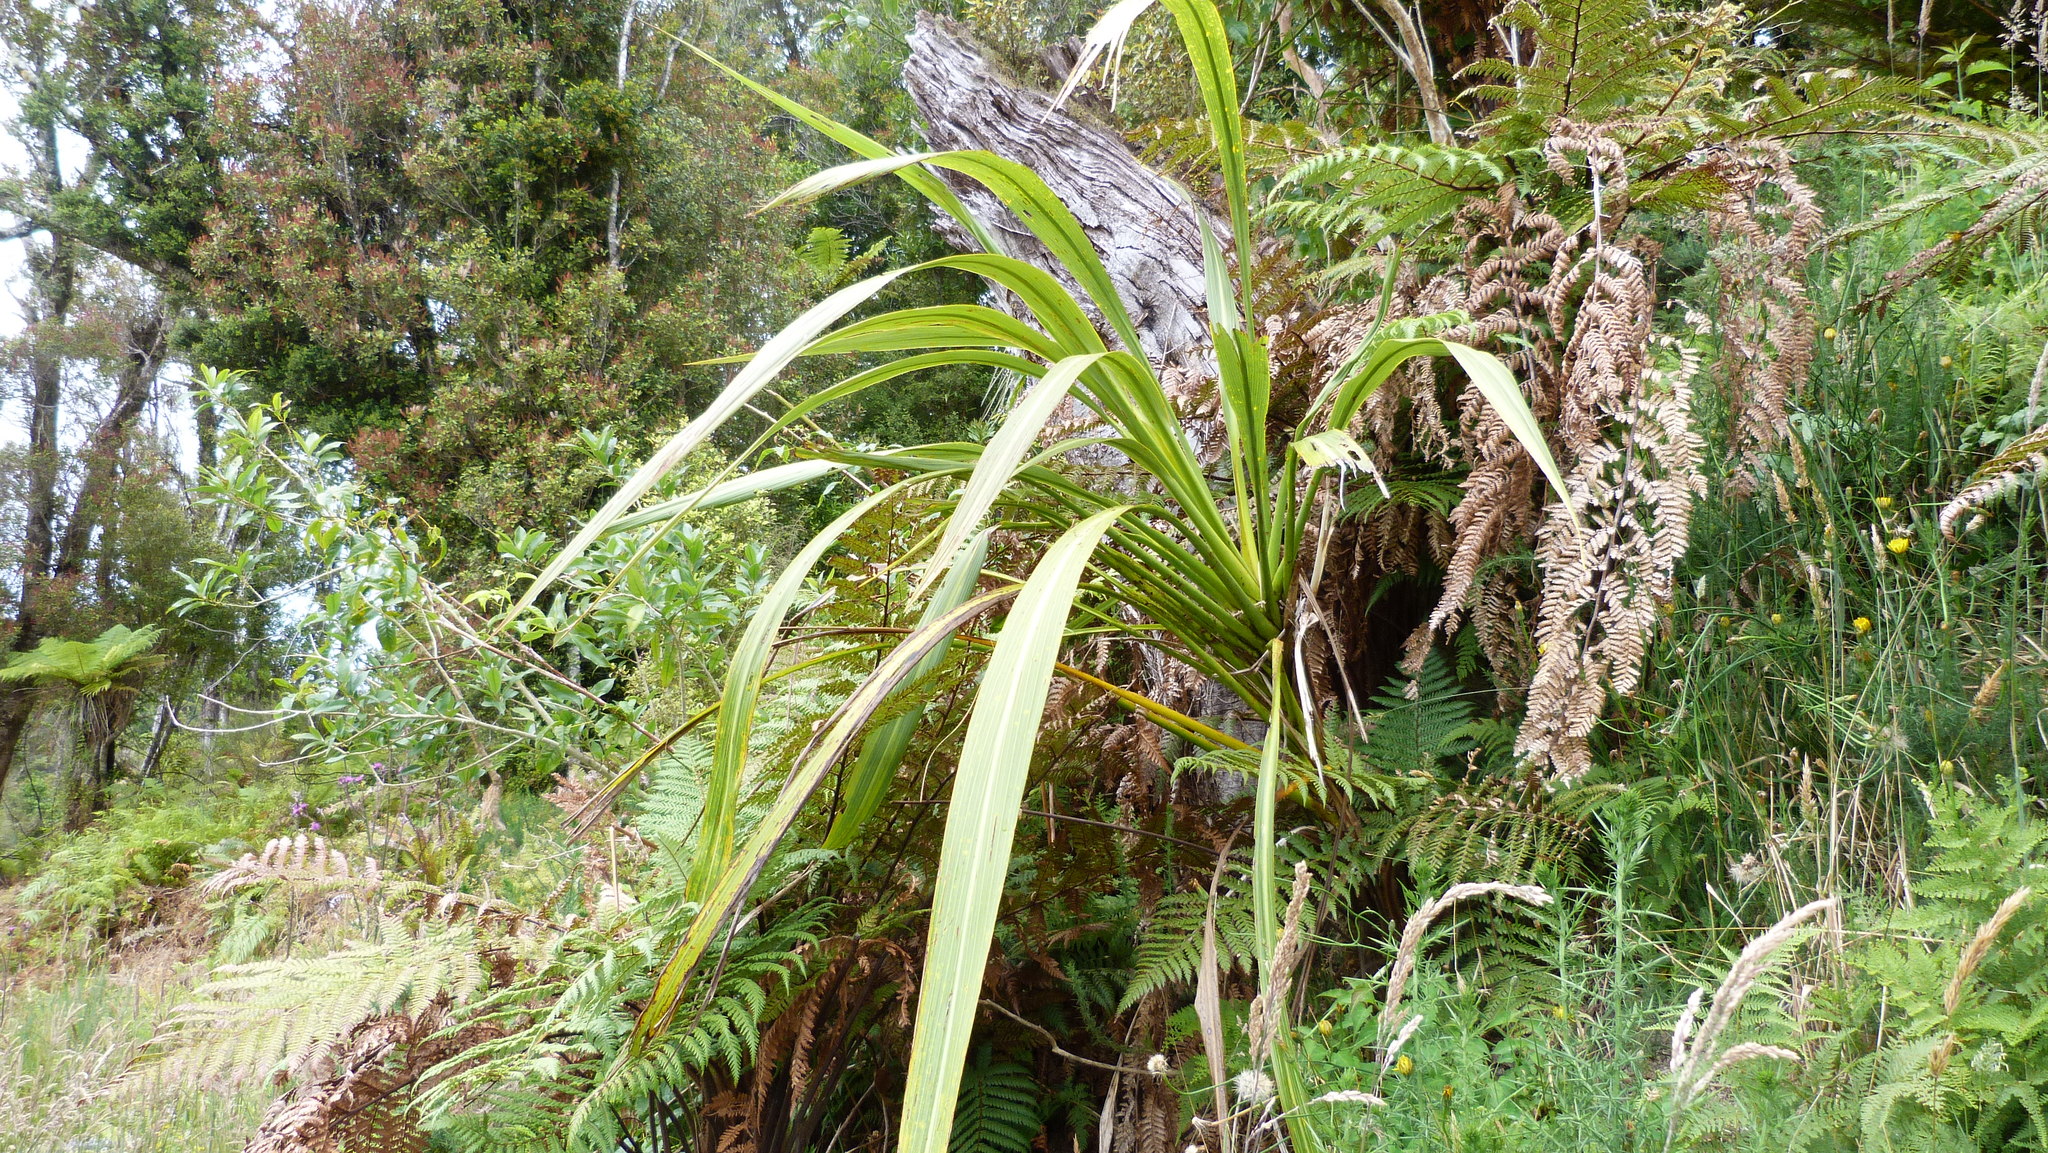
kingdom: Plantae
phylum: Tracheophyta
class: Liliopsida
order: Asparagales
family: Asparagaceae
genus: Cordyline
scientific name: Cordyline banksii
